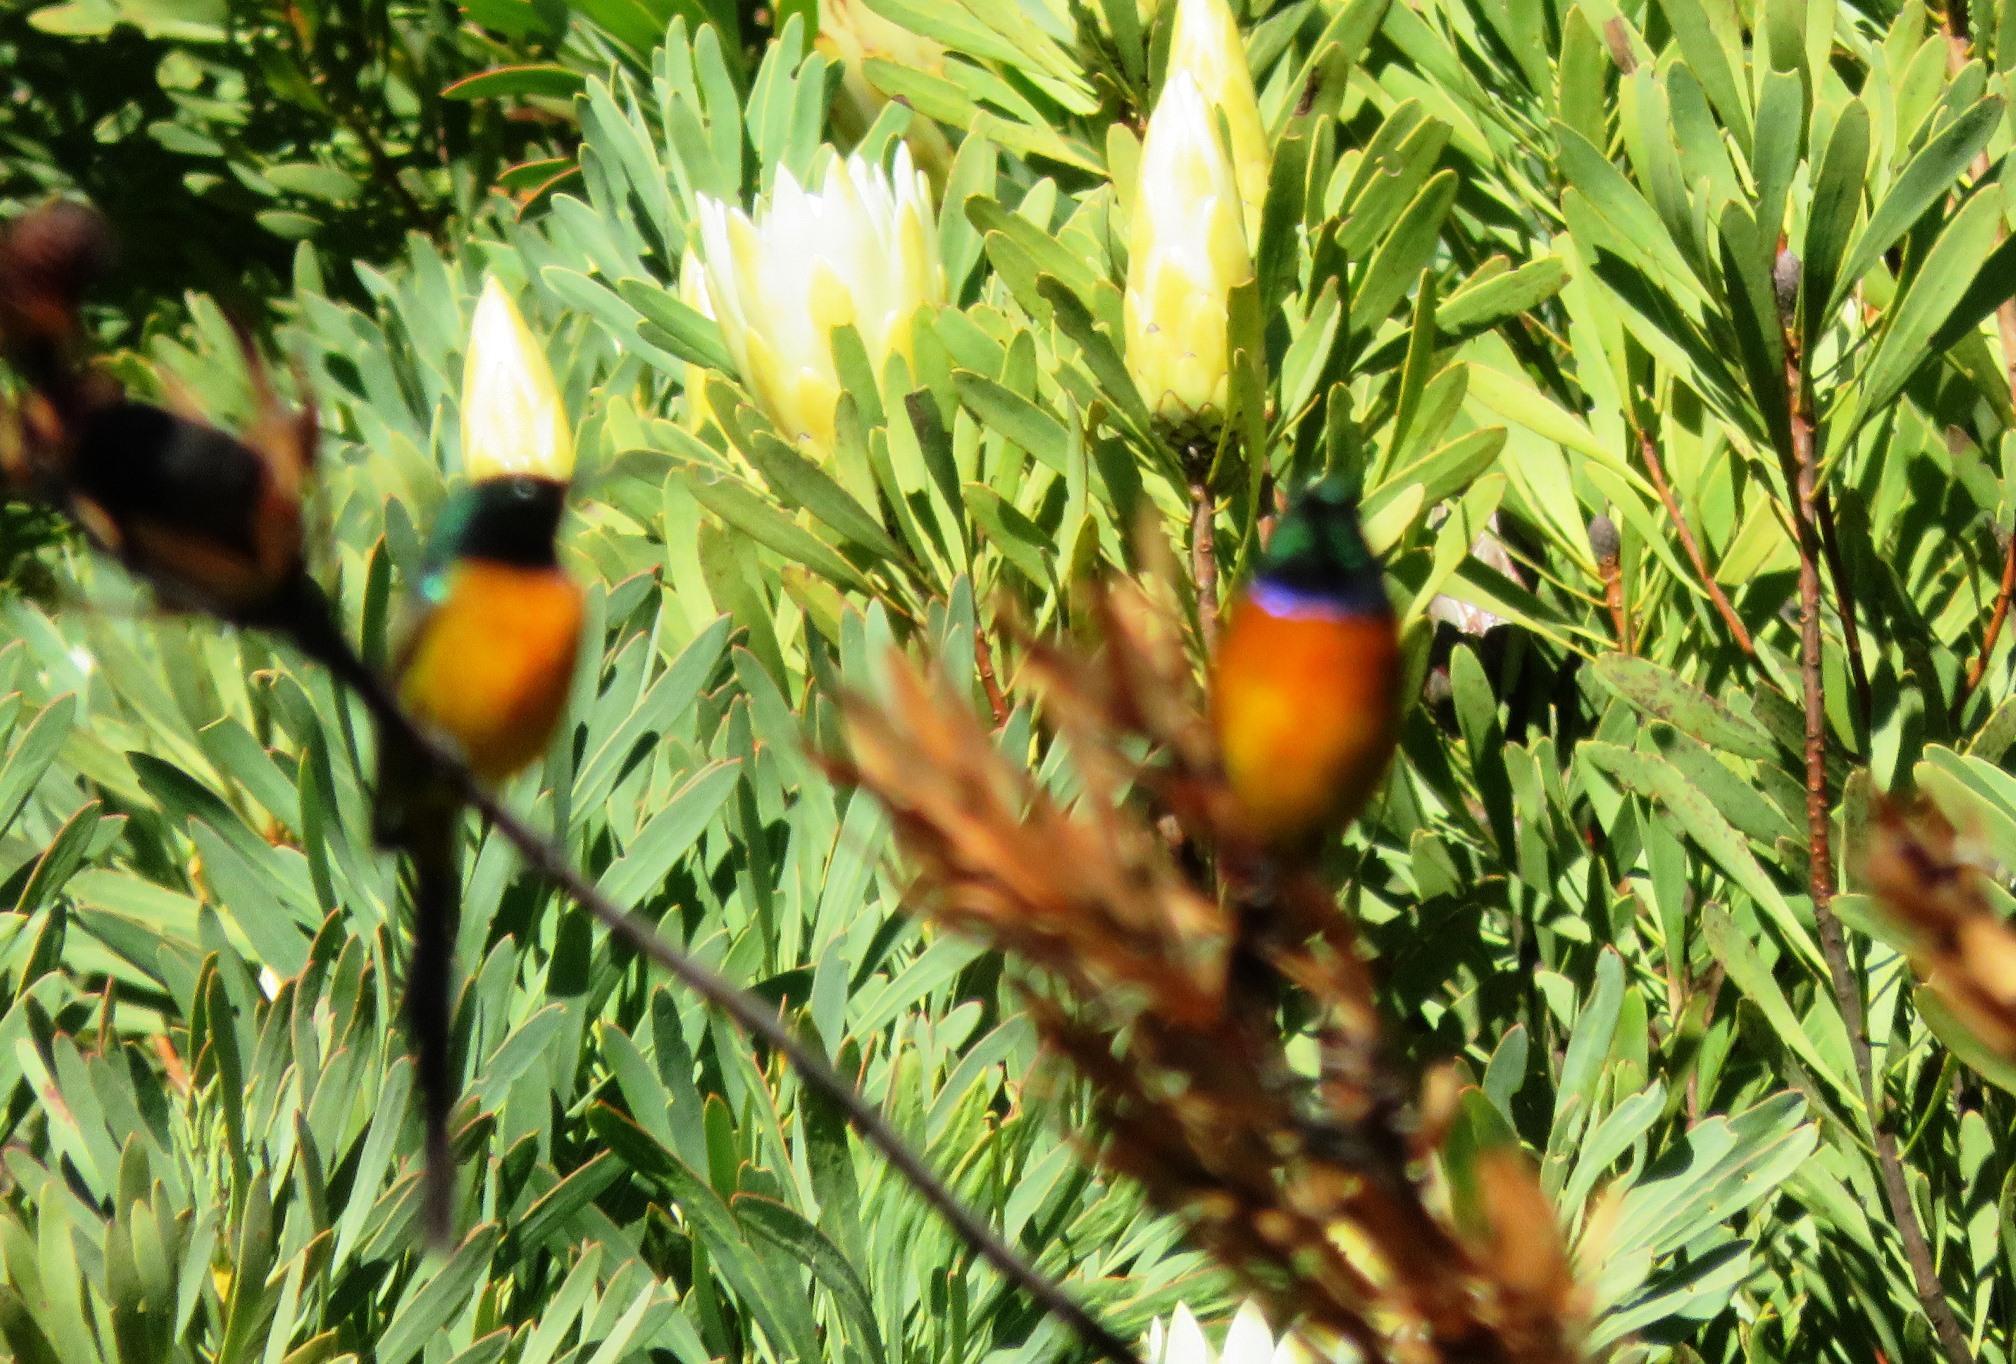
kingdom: Animalia
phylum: Chordata
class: Aves
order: Passeriformes
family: Nectariniidae
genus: Anthobaphes
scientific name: Anthobaphes violacea
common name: Orange-breasted sunbird
